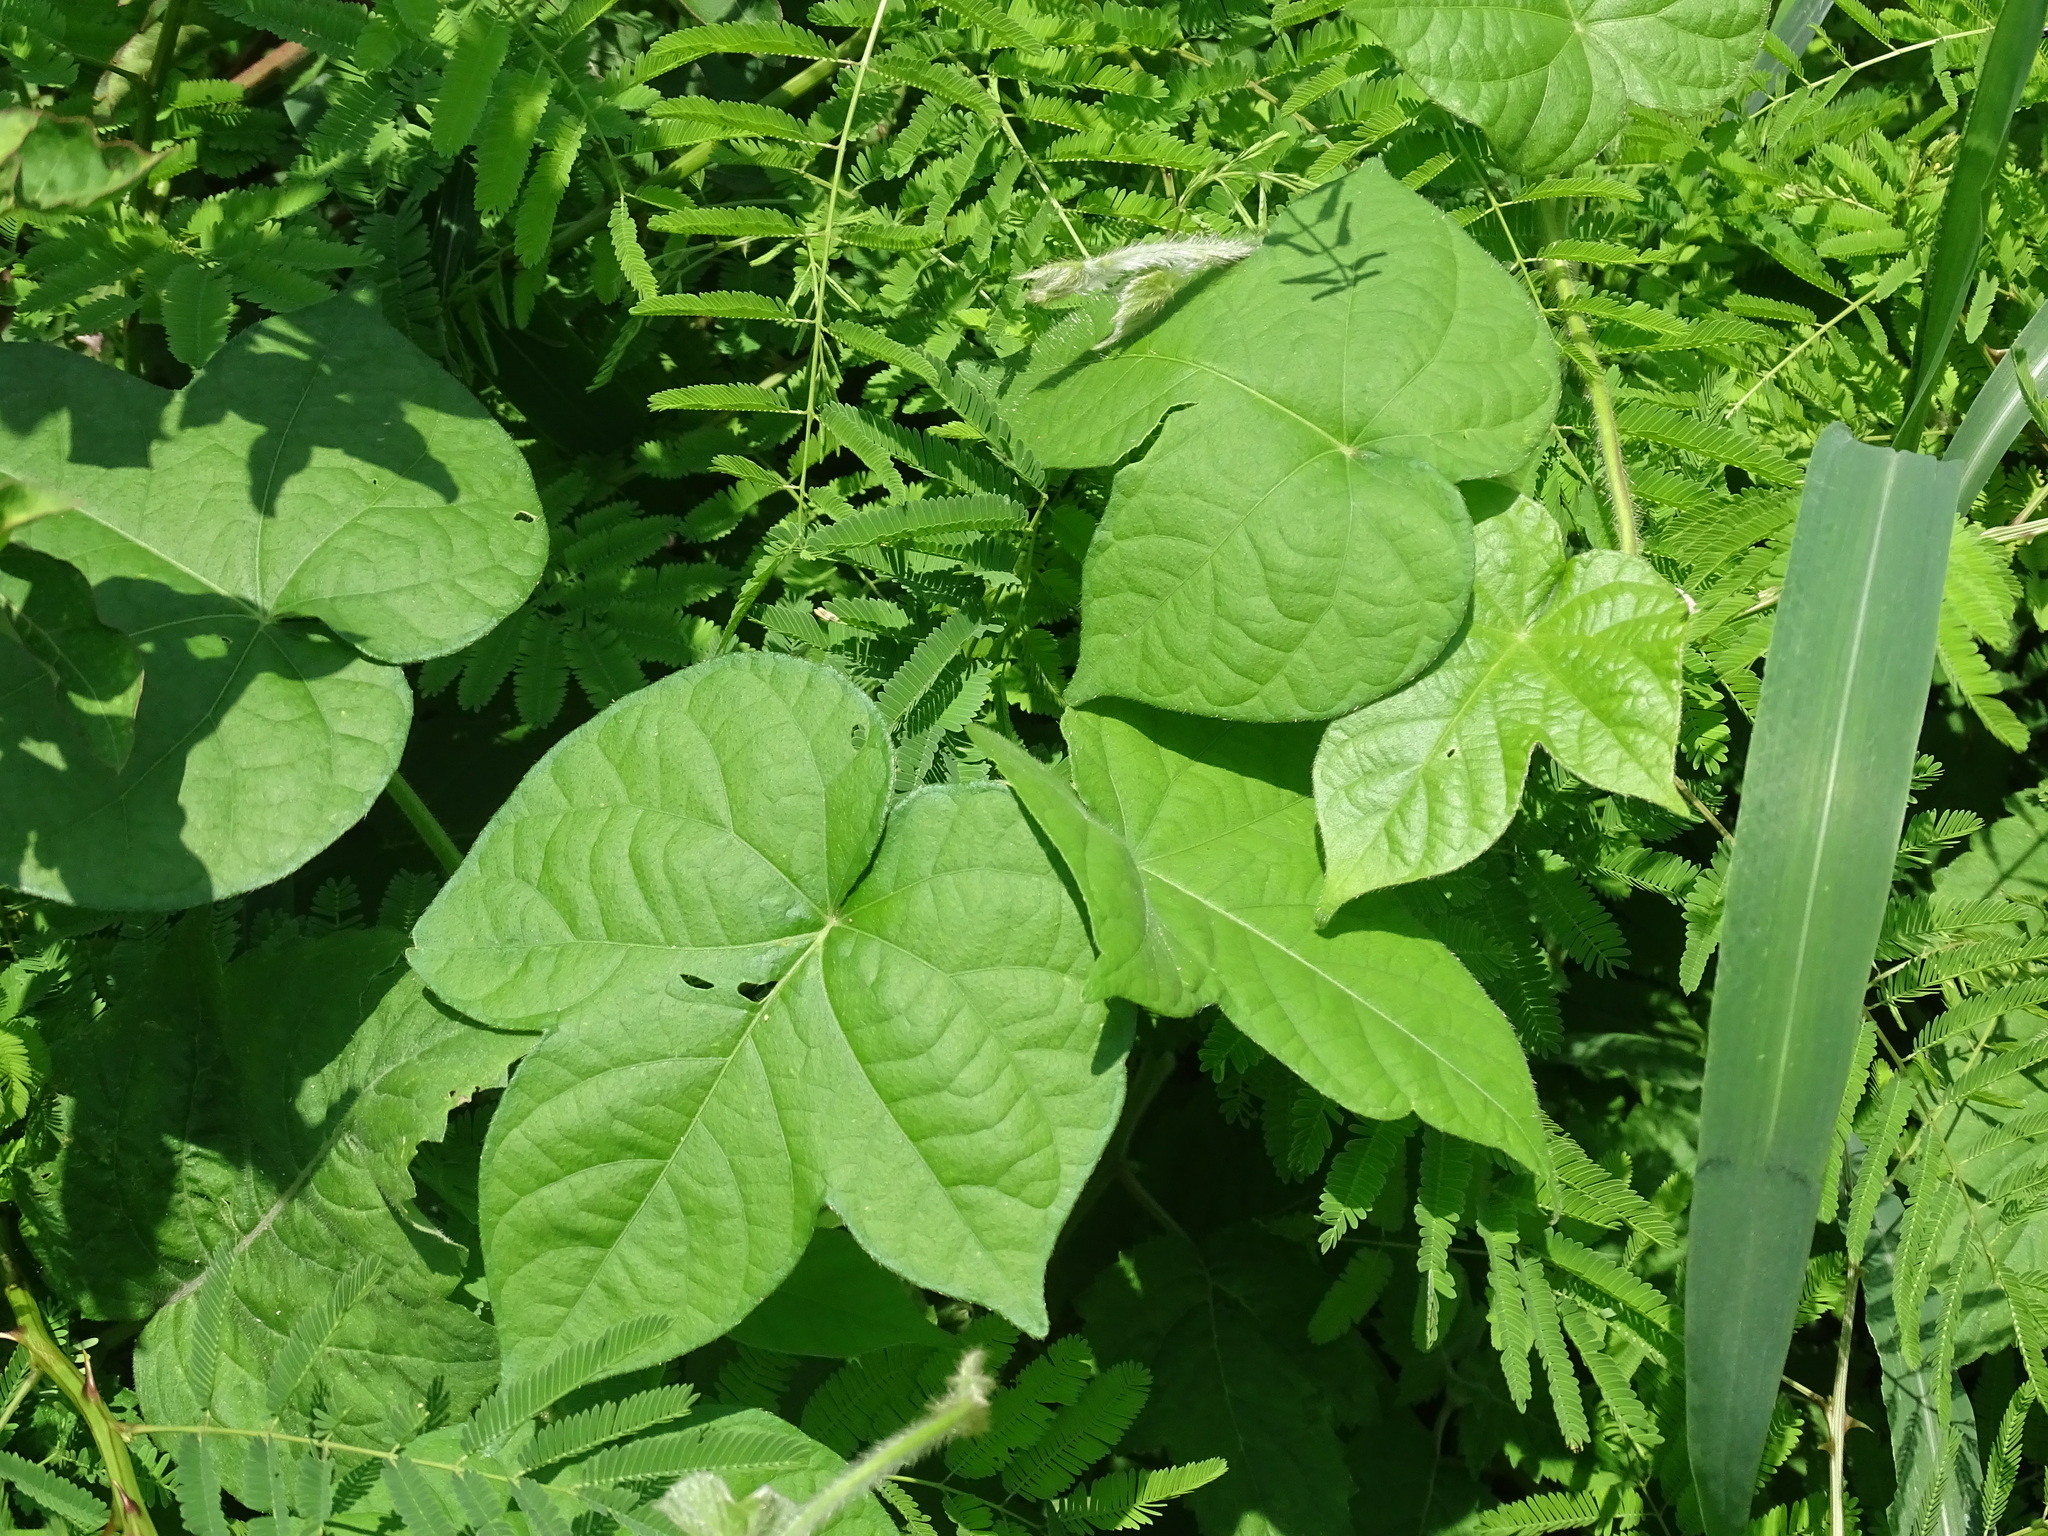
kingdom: Plantae
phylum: Tracheophyta
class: Magnoliopsida
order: Solanales
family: Convolvulaceae
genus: Ipomoea
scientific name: Ipomoea nil
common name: Japanese morning-glory
